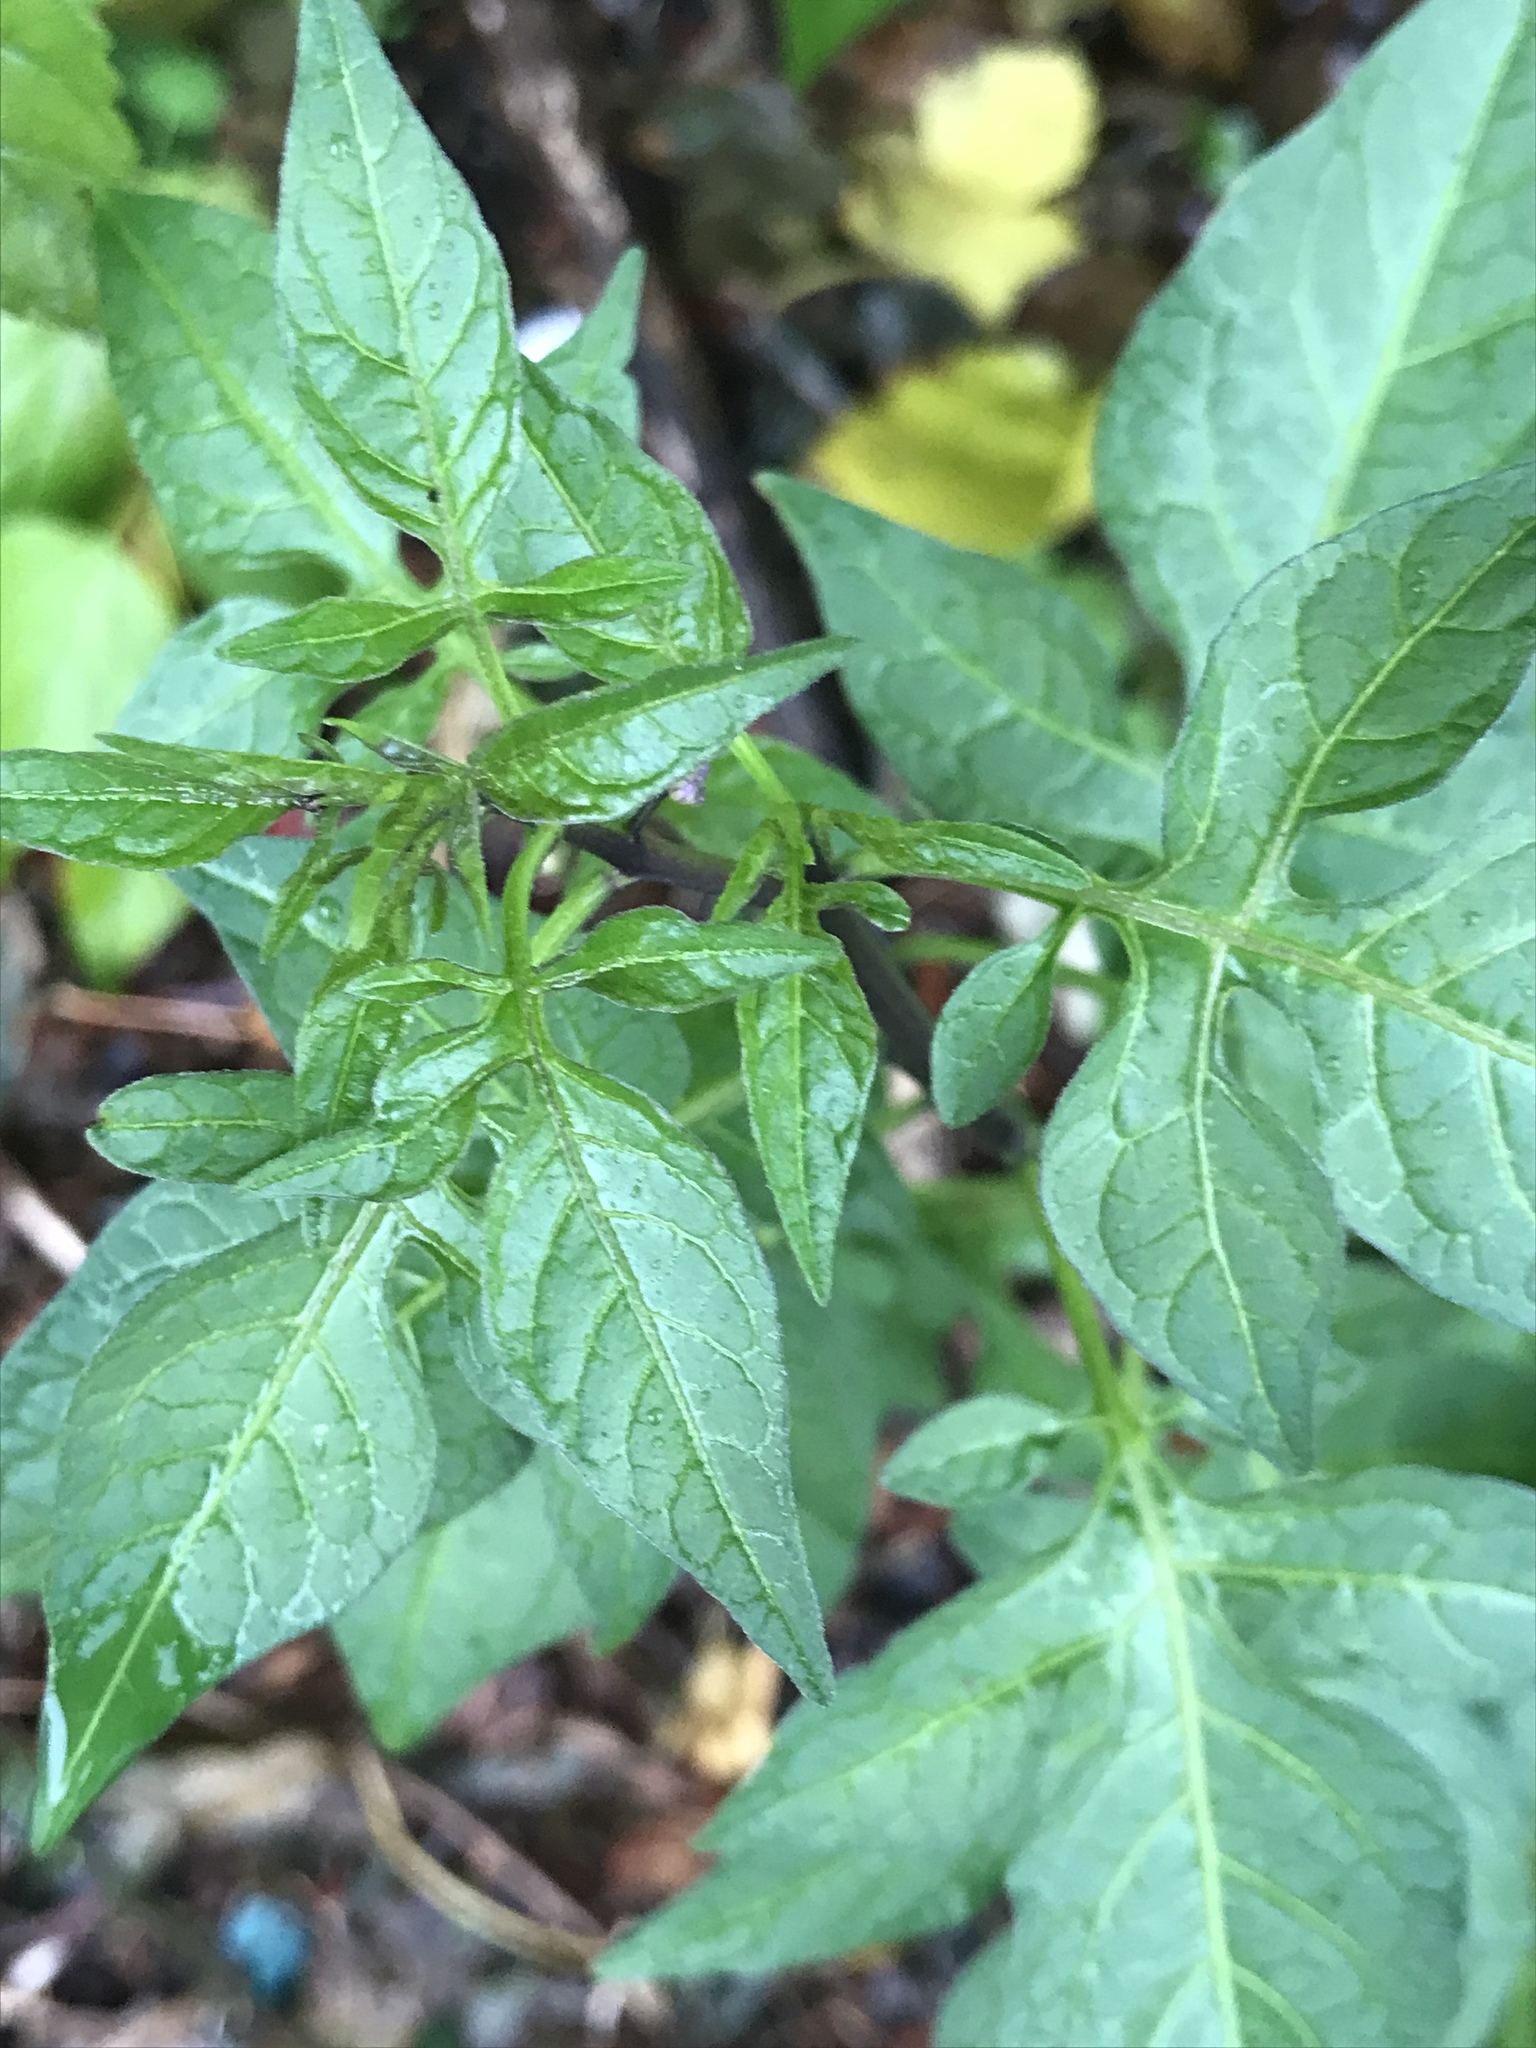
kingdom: Plantae
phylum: Tracheophyta
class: Magnoliopsida
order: Solanales
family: Solanaceae
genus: Solanum
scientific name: Solanum dulcamara
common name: Climbing nightshade
